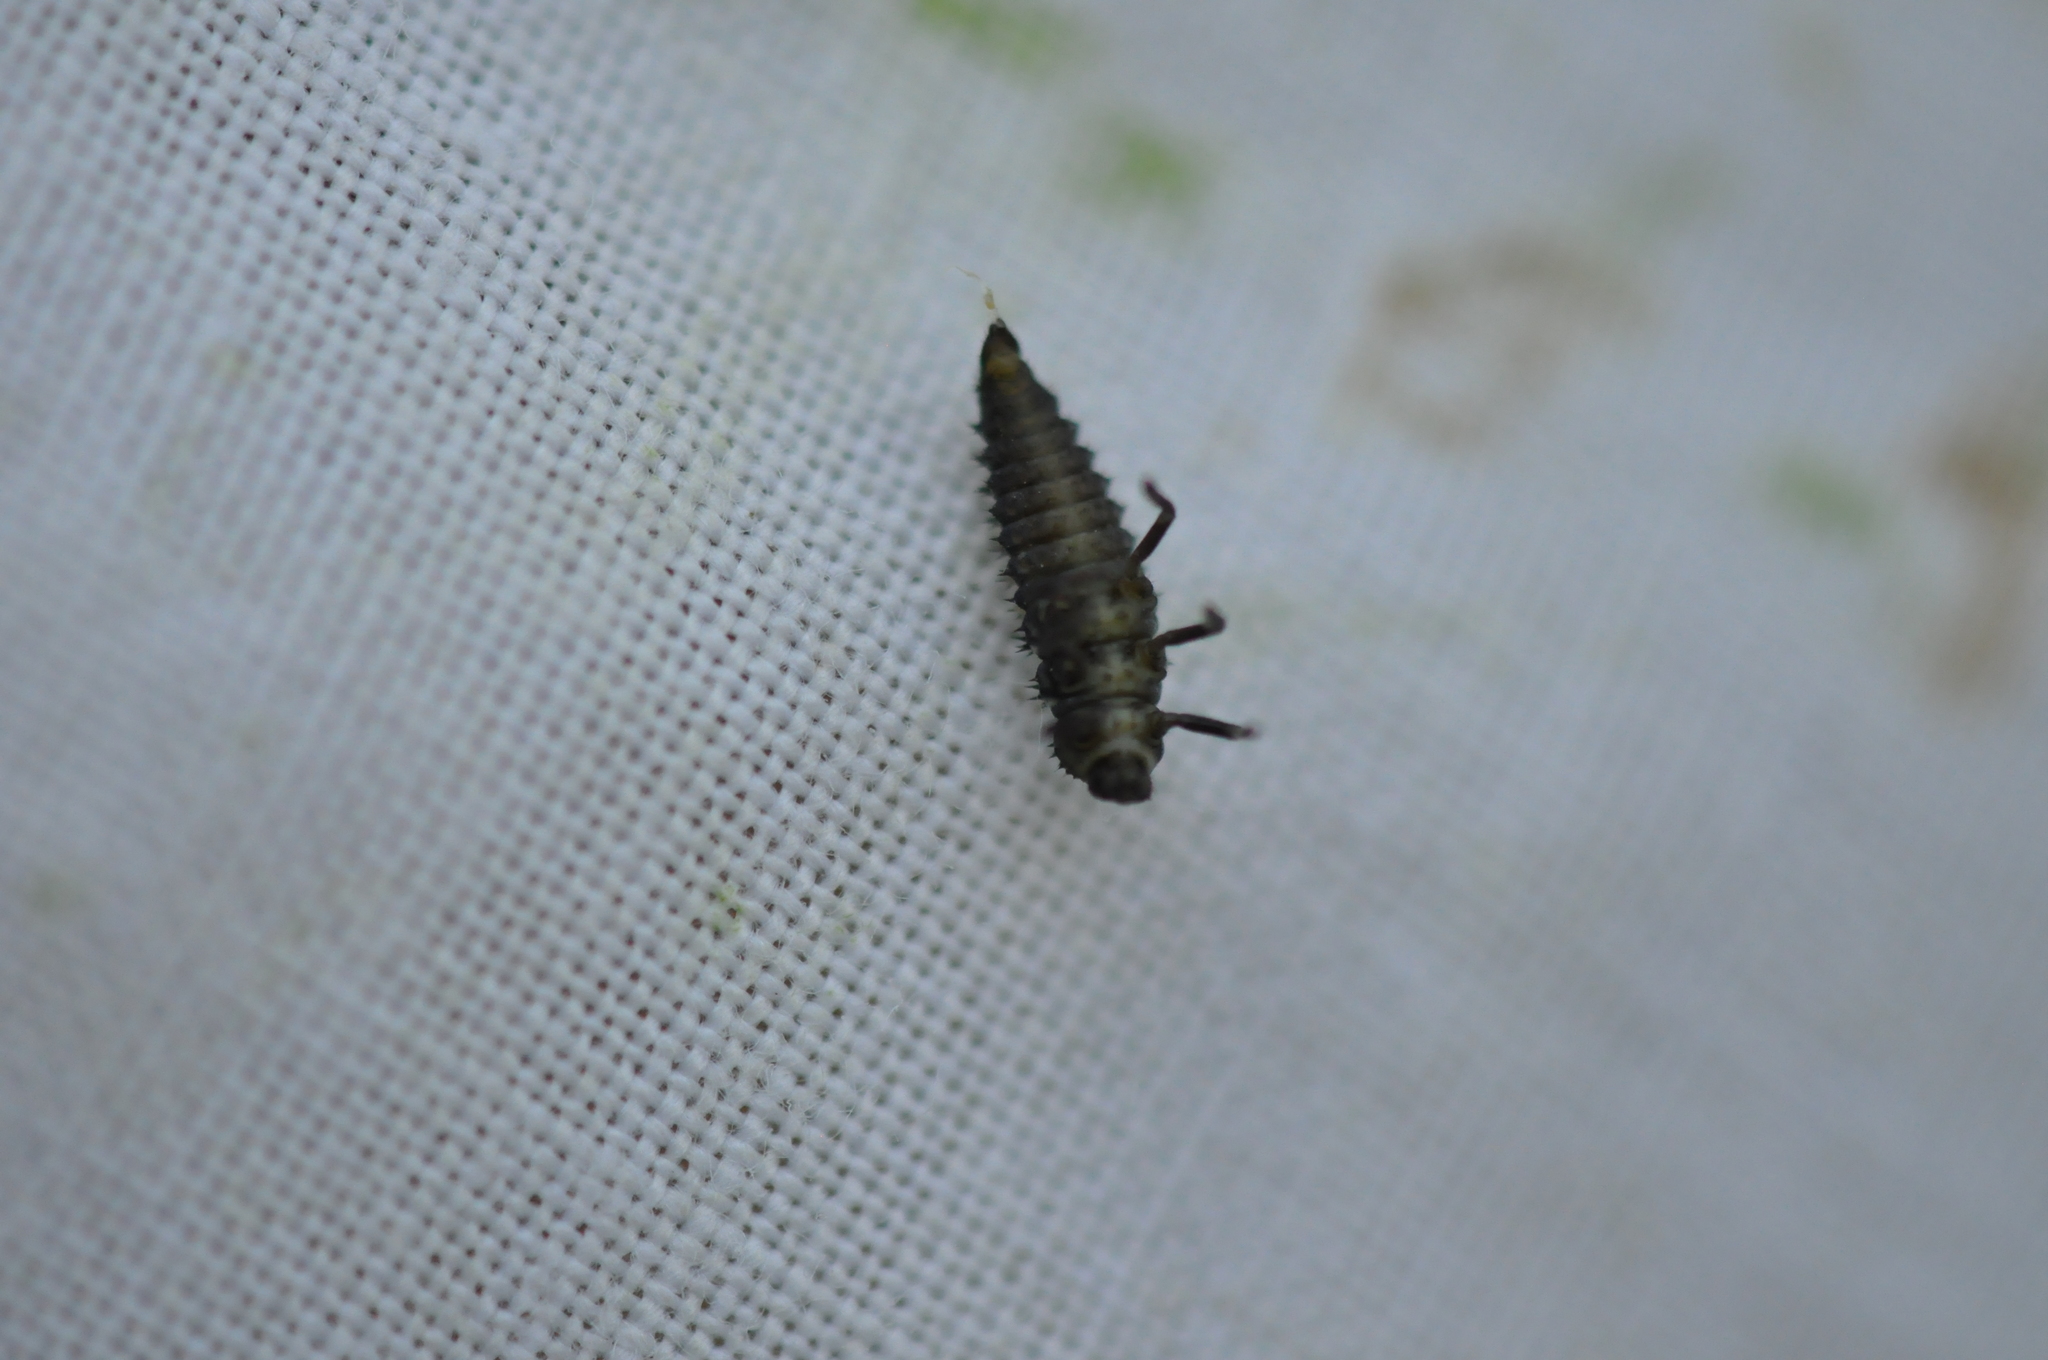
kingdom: Animalia
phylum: Arthropoda
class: Insecta
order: Coleoptera
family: Coccinellidae
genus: Harmonia
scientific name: Harmonia
